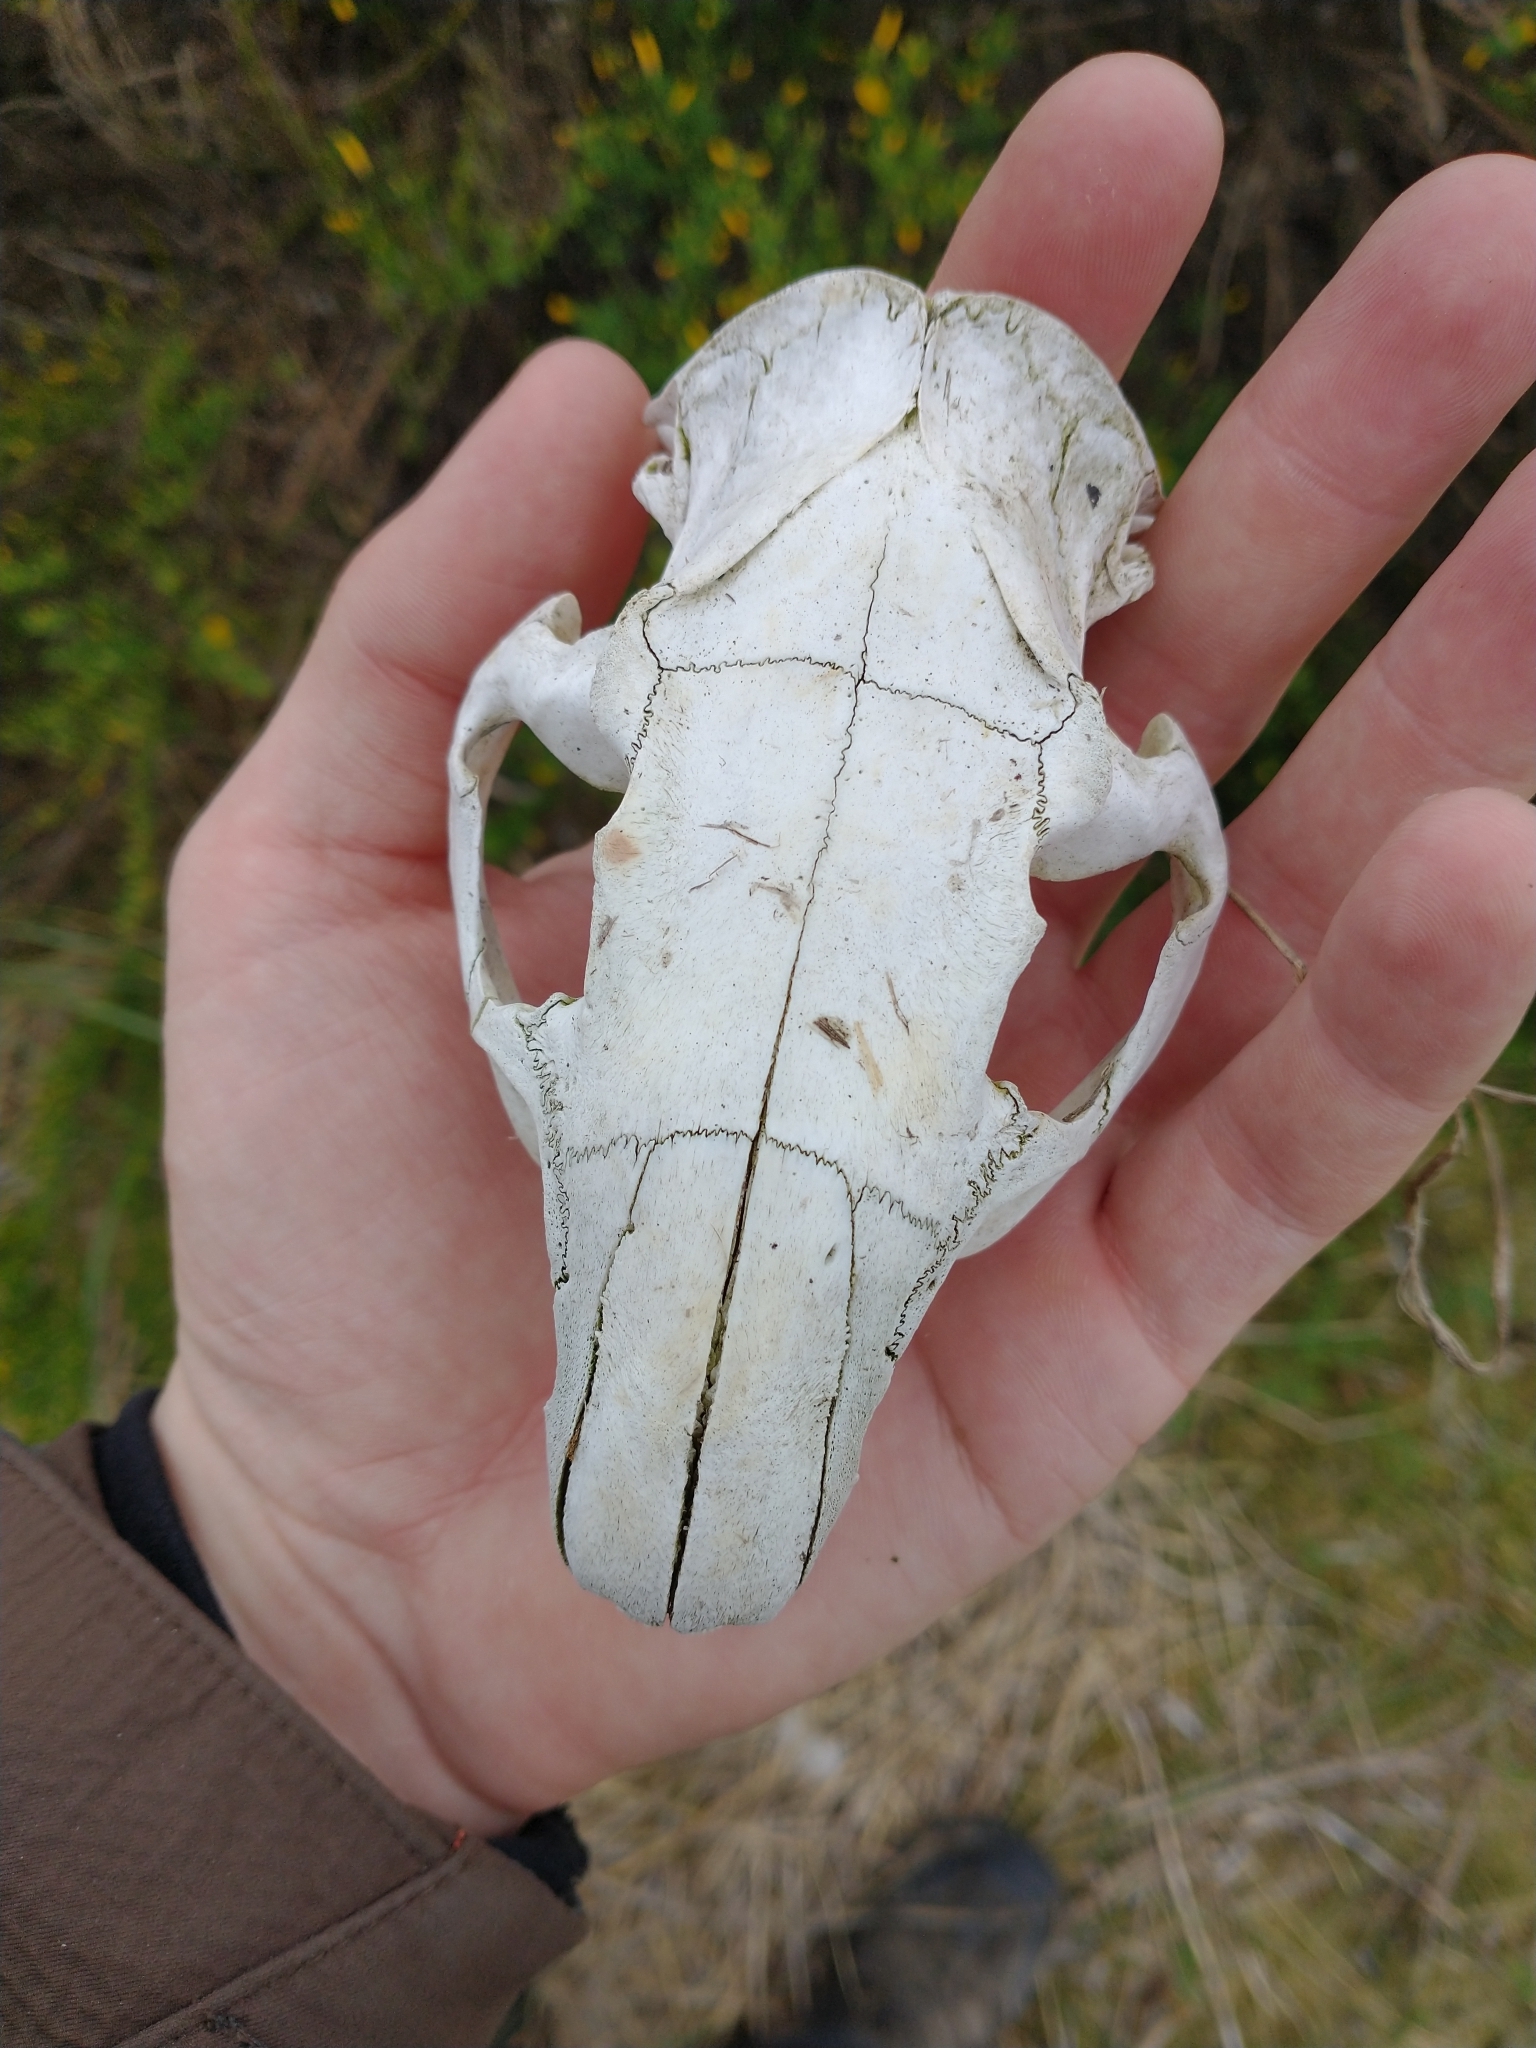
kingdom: Animalia
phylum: Chordata
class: Mammalia
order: Rodentia
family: Myocastoridae
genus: Myocastor
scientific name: Myocastor coypus
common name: Coypu
